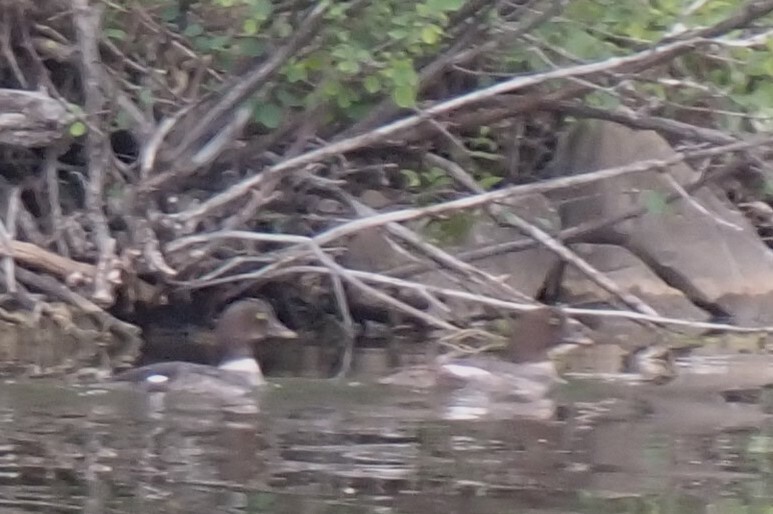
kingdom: Animalia
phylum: Chordata
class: Aves
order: Anseriformes
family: Anatidae
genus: Bucephala
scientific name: Bucephala islandica
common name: Barrow's goldeneye
